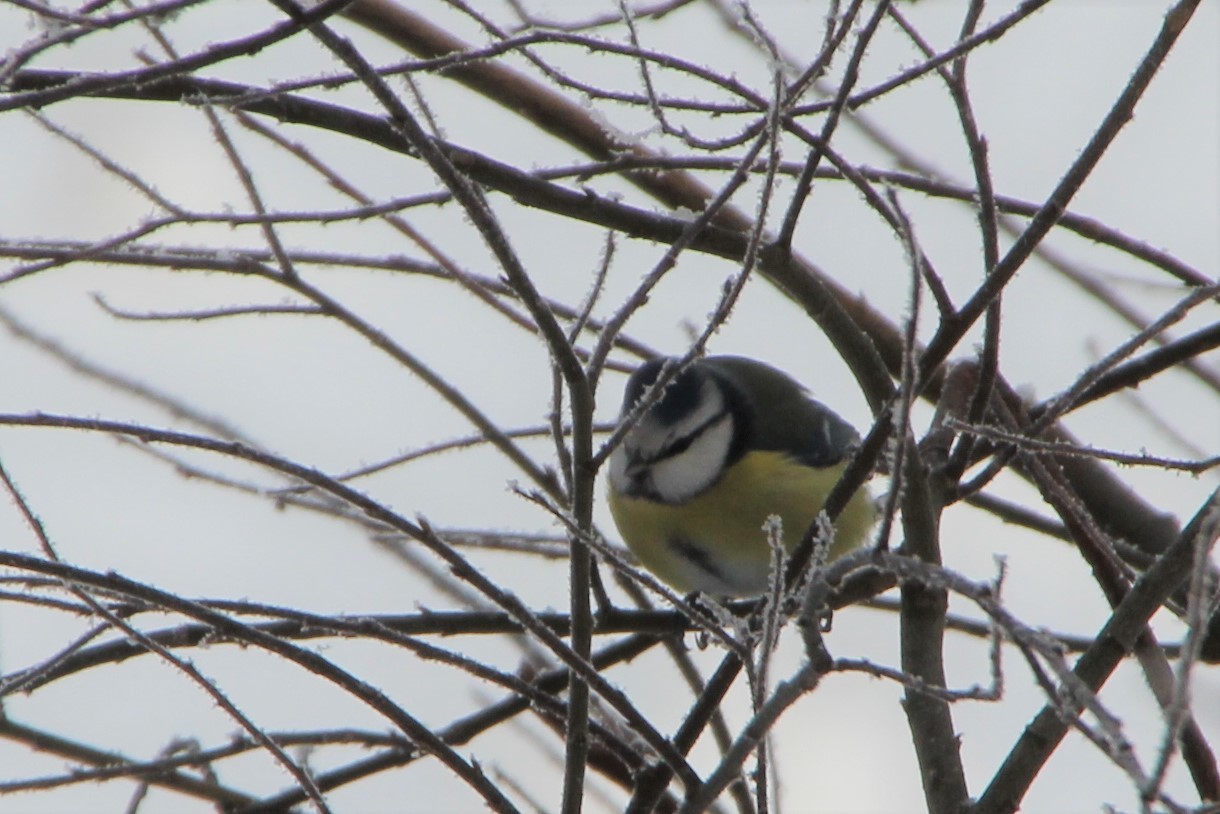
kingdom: Animalia
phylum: Chordata
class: Aves
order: Passeriformes
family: Paridae
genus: Cyanistes
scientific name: Cyanistes caeruleus
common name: Eurasian blue tit
